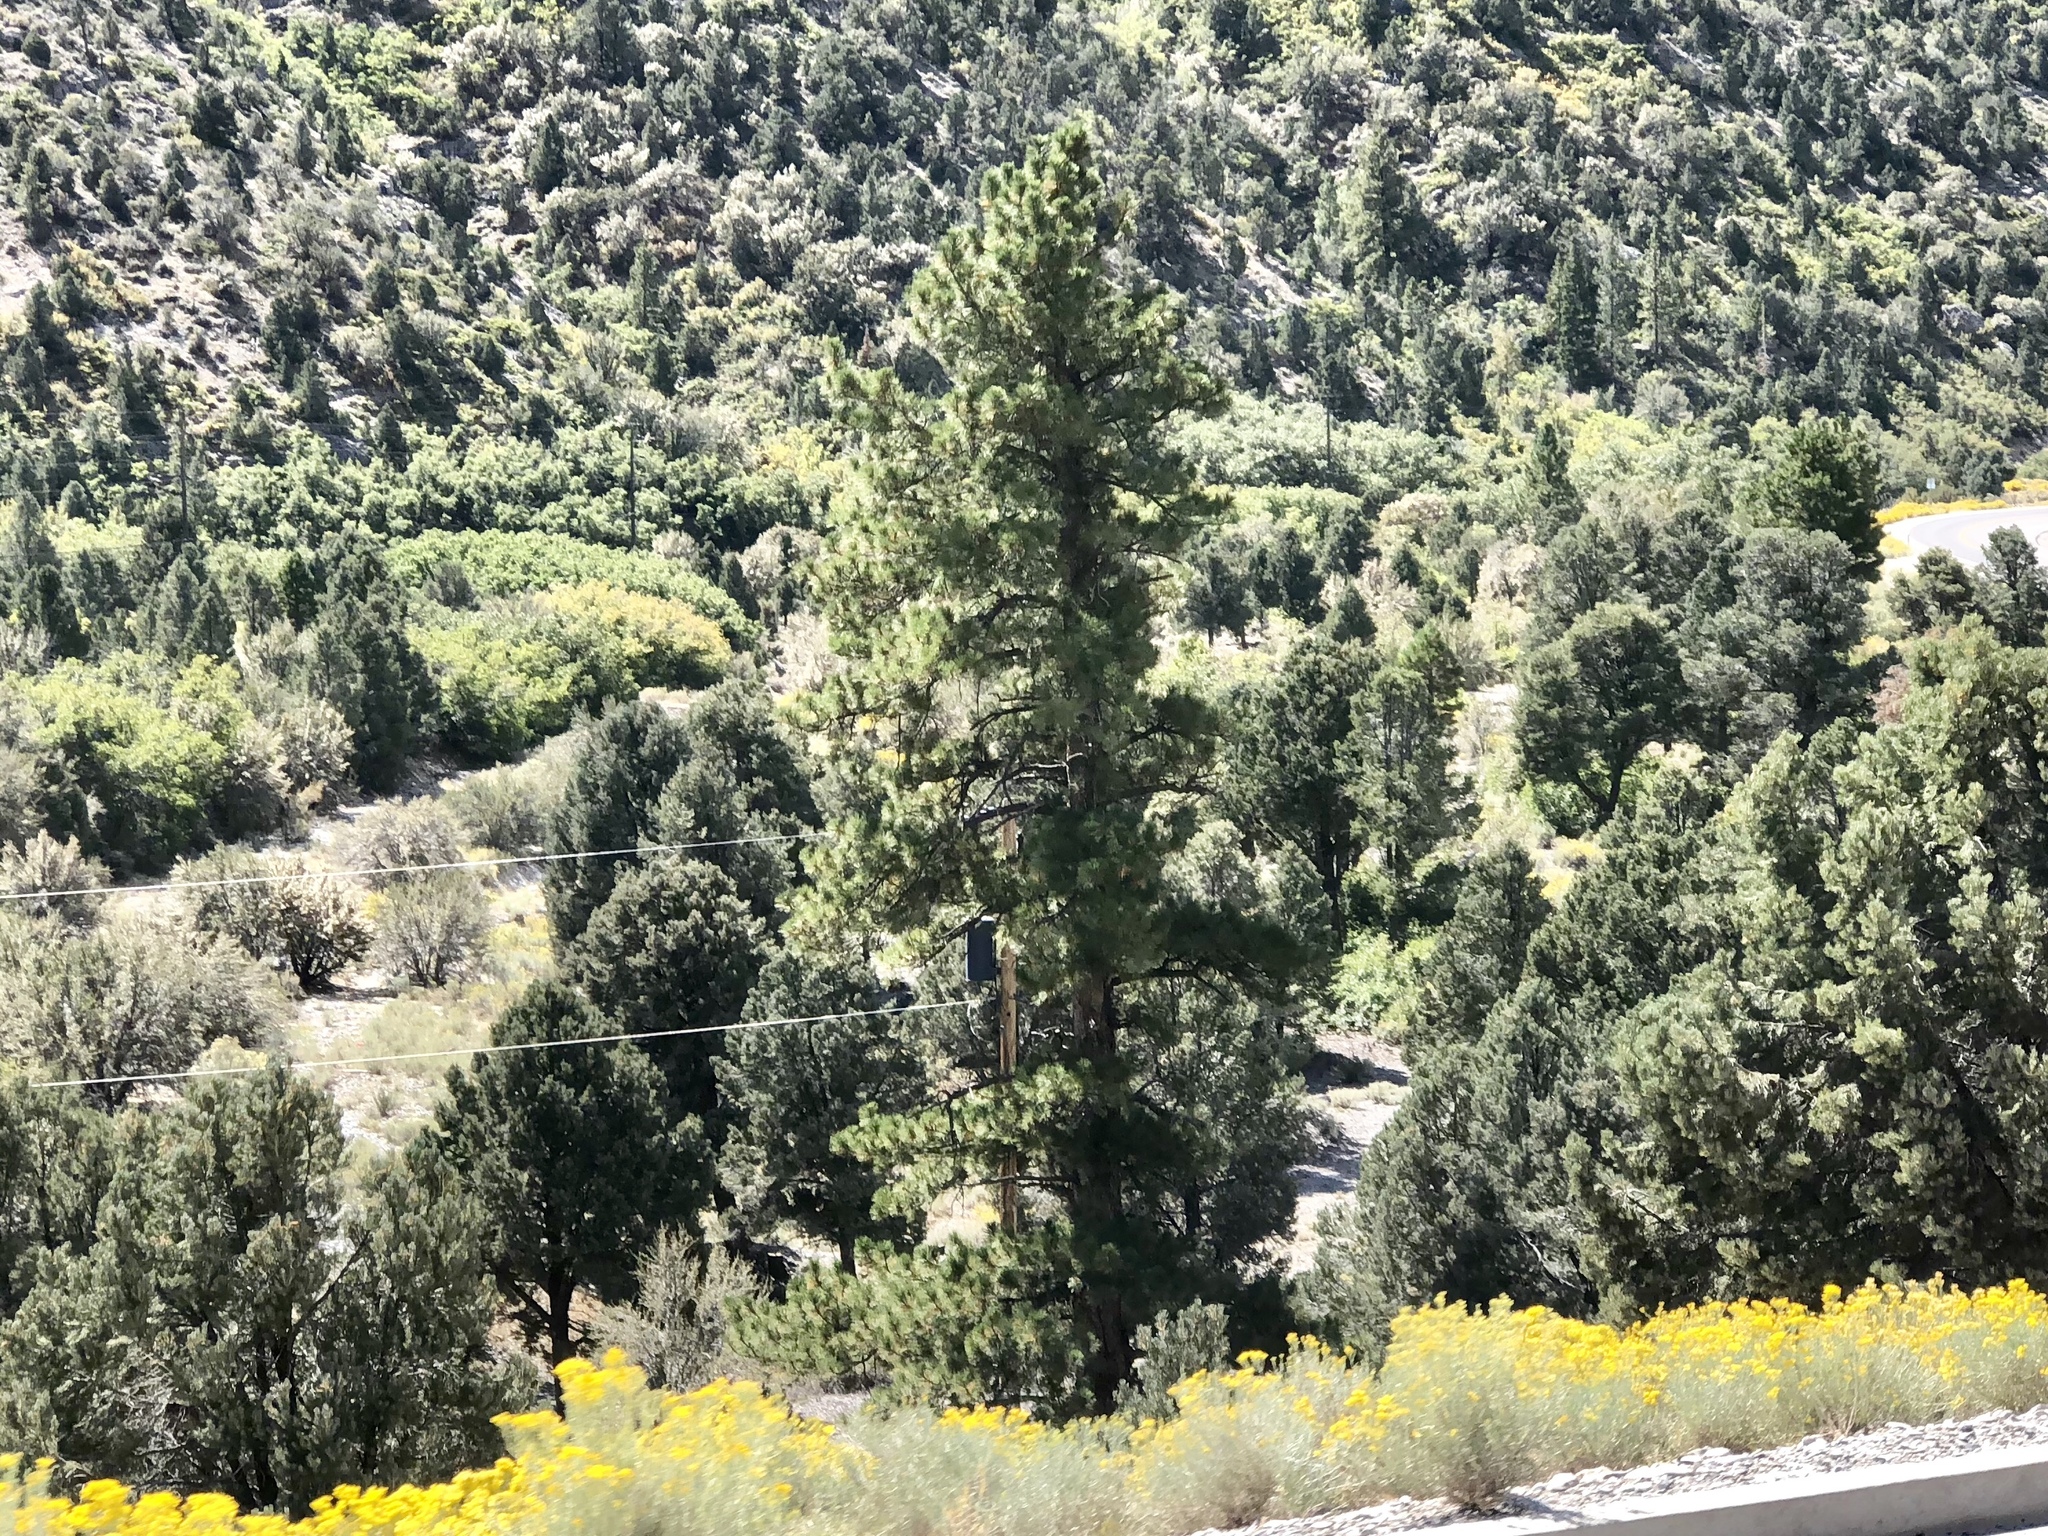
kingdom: Plantae
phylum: Tracheophyta
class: Pinopsida
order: Pinales
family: Pinaceae
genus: Pinus
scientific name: Pinus ponderosa
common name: Western yellow-pine
